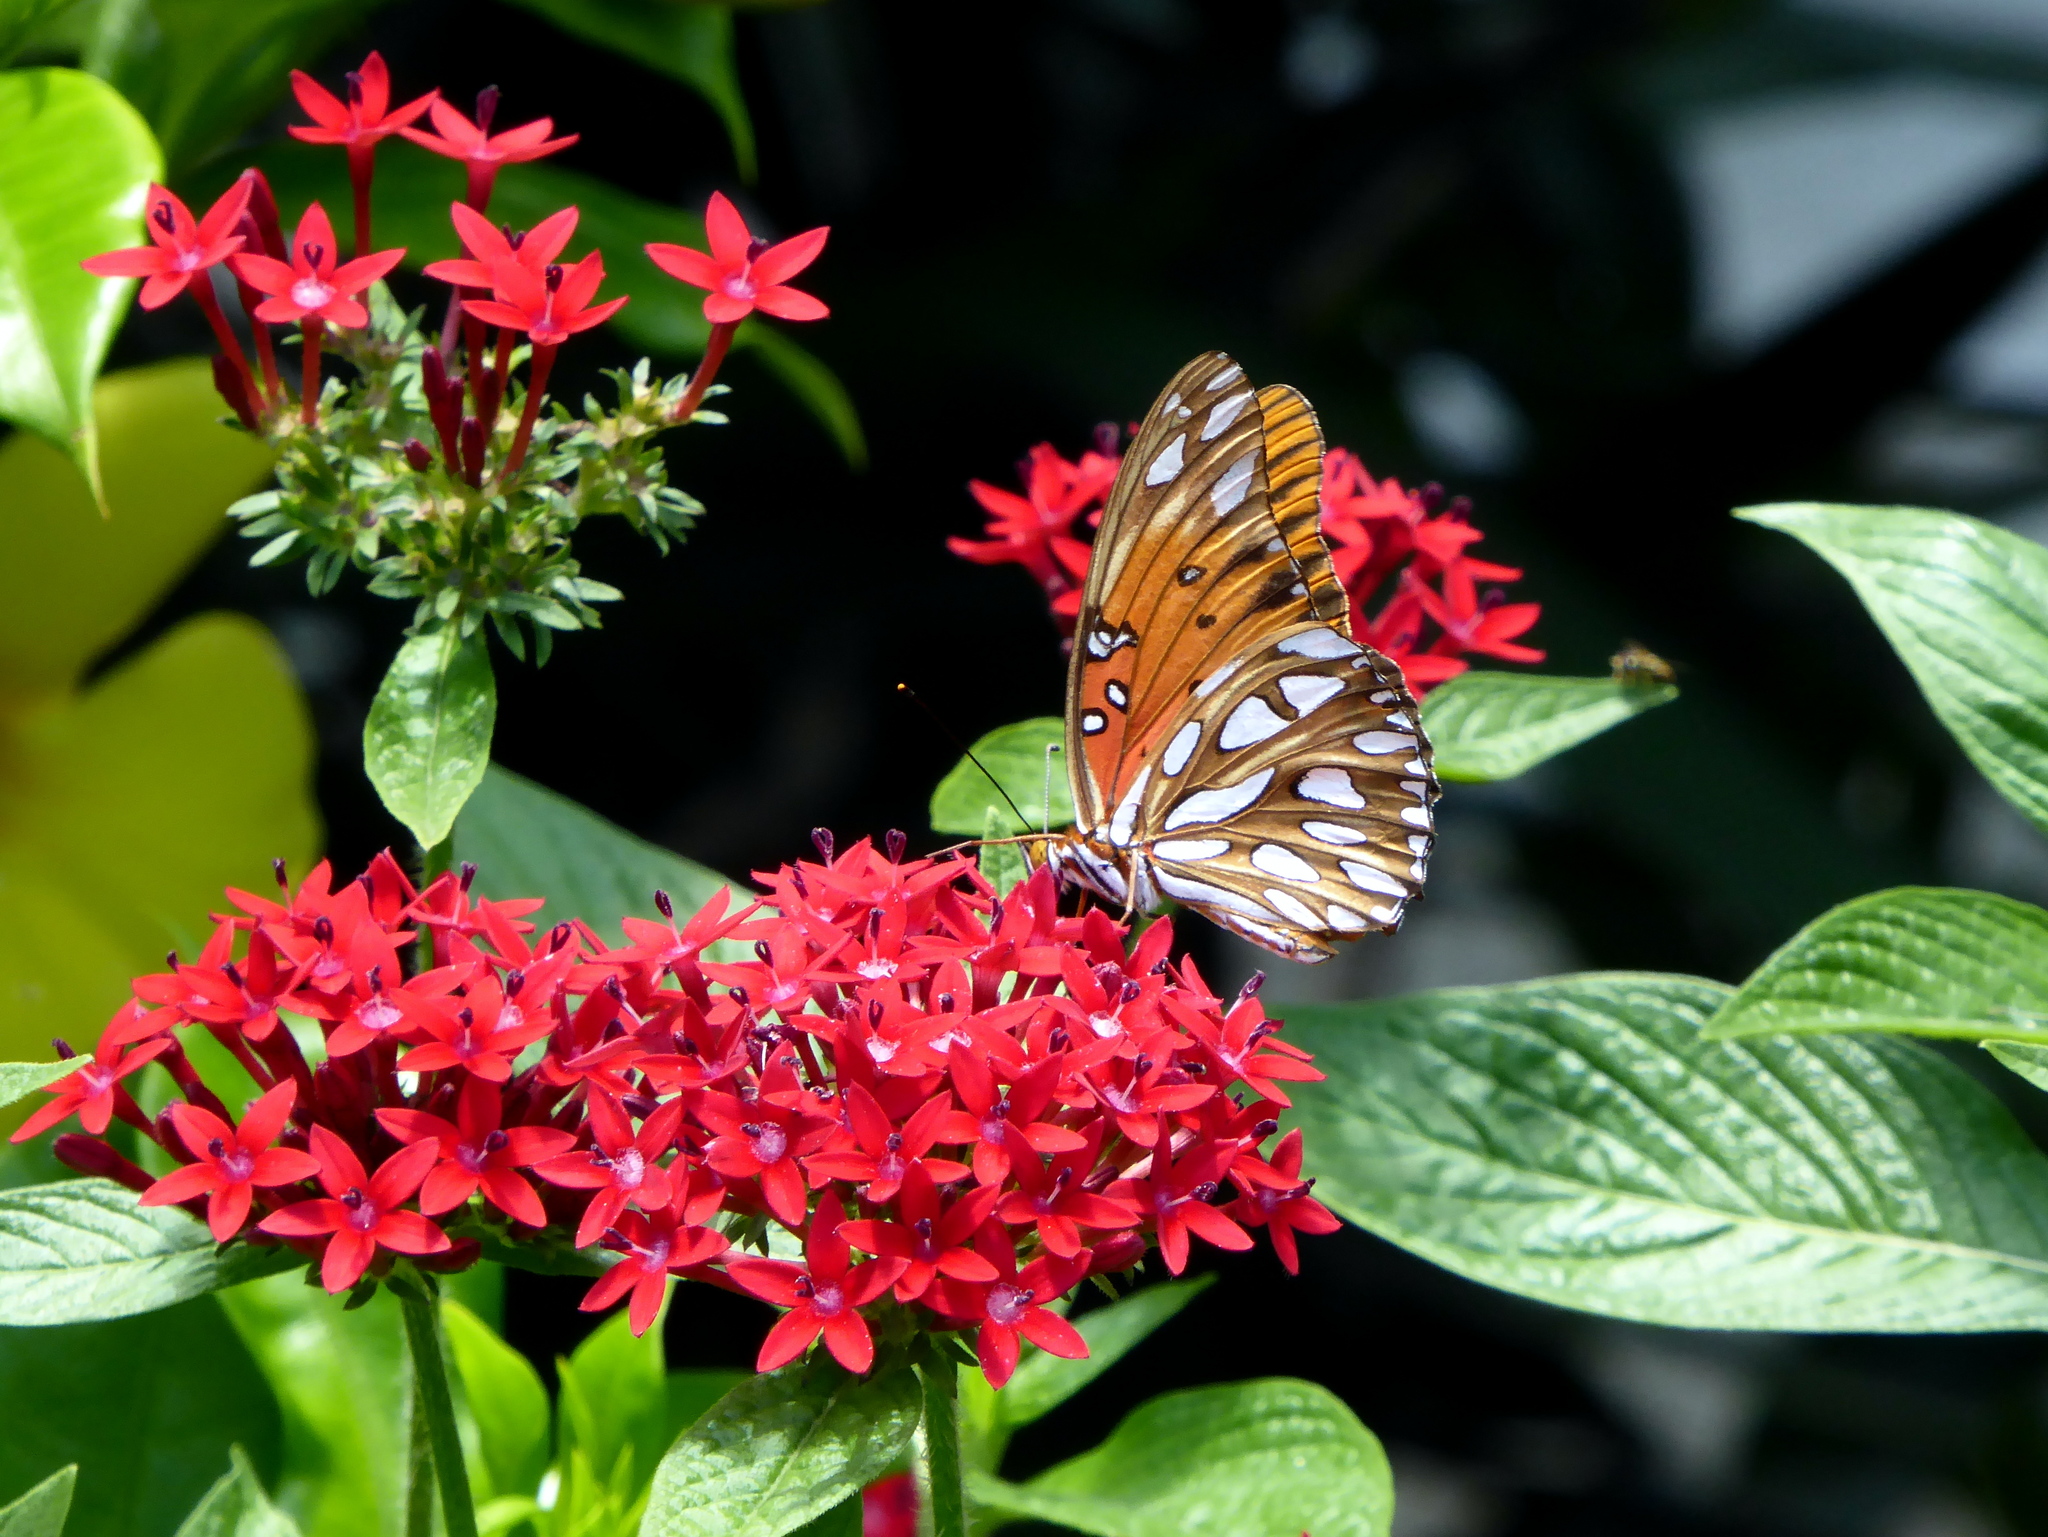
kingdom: Animalia
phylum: Arthropoda
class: Insecta
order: Lepidoptera
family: Nymphalidae
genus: Dione
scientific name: Dione vanillae
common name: Gulf fritillary
